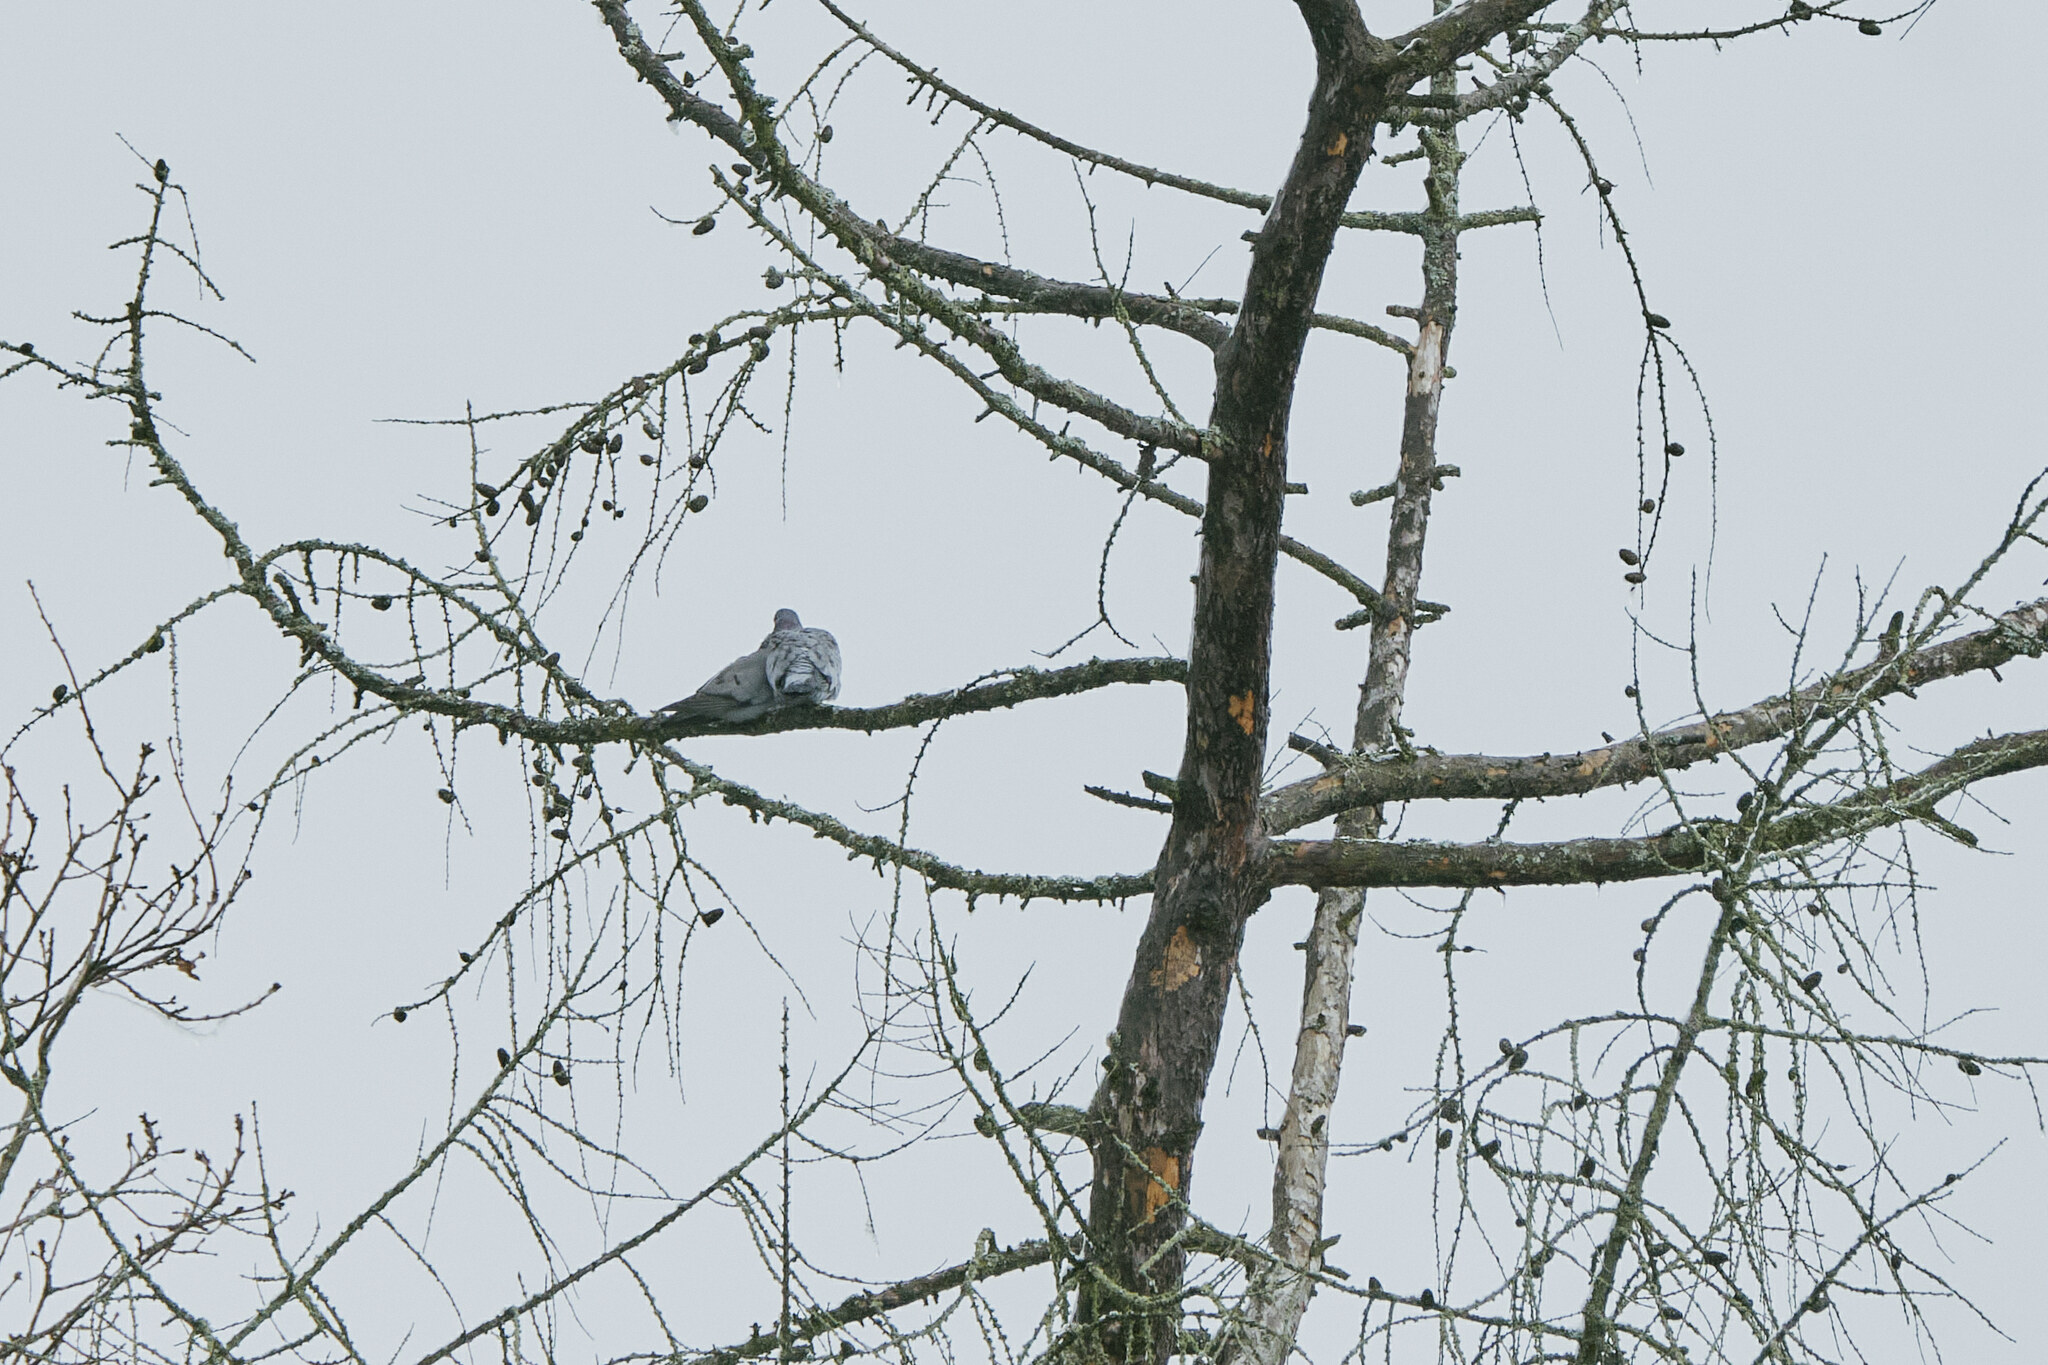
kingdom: Animalia
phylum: Chordata
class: Aves
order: Columbiformes
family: Columbidae
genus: Columba
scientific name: Columba oenas
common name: Stock dove
